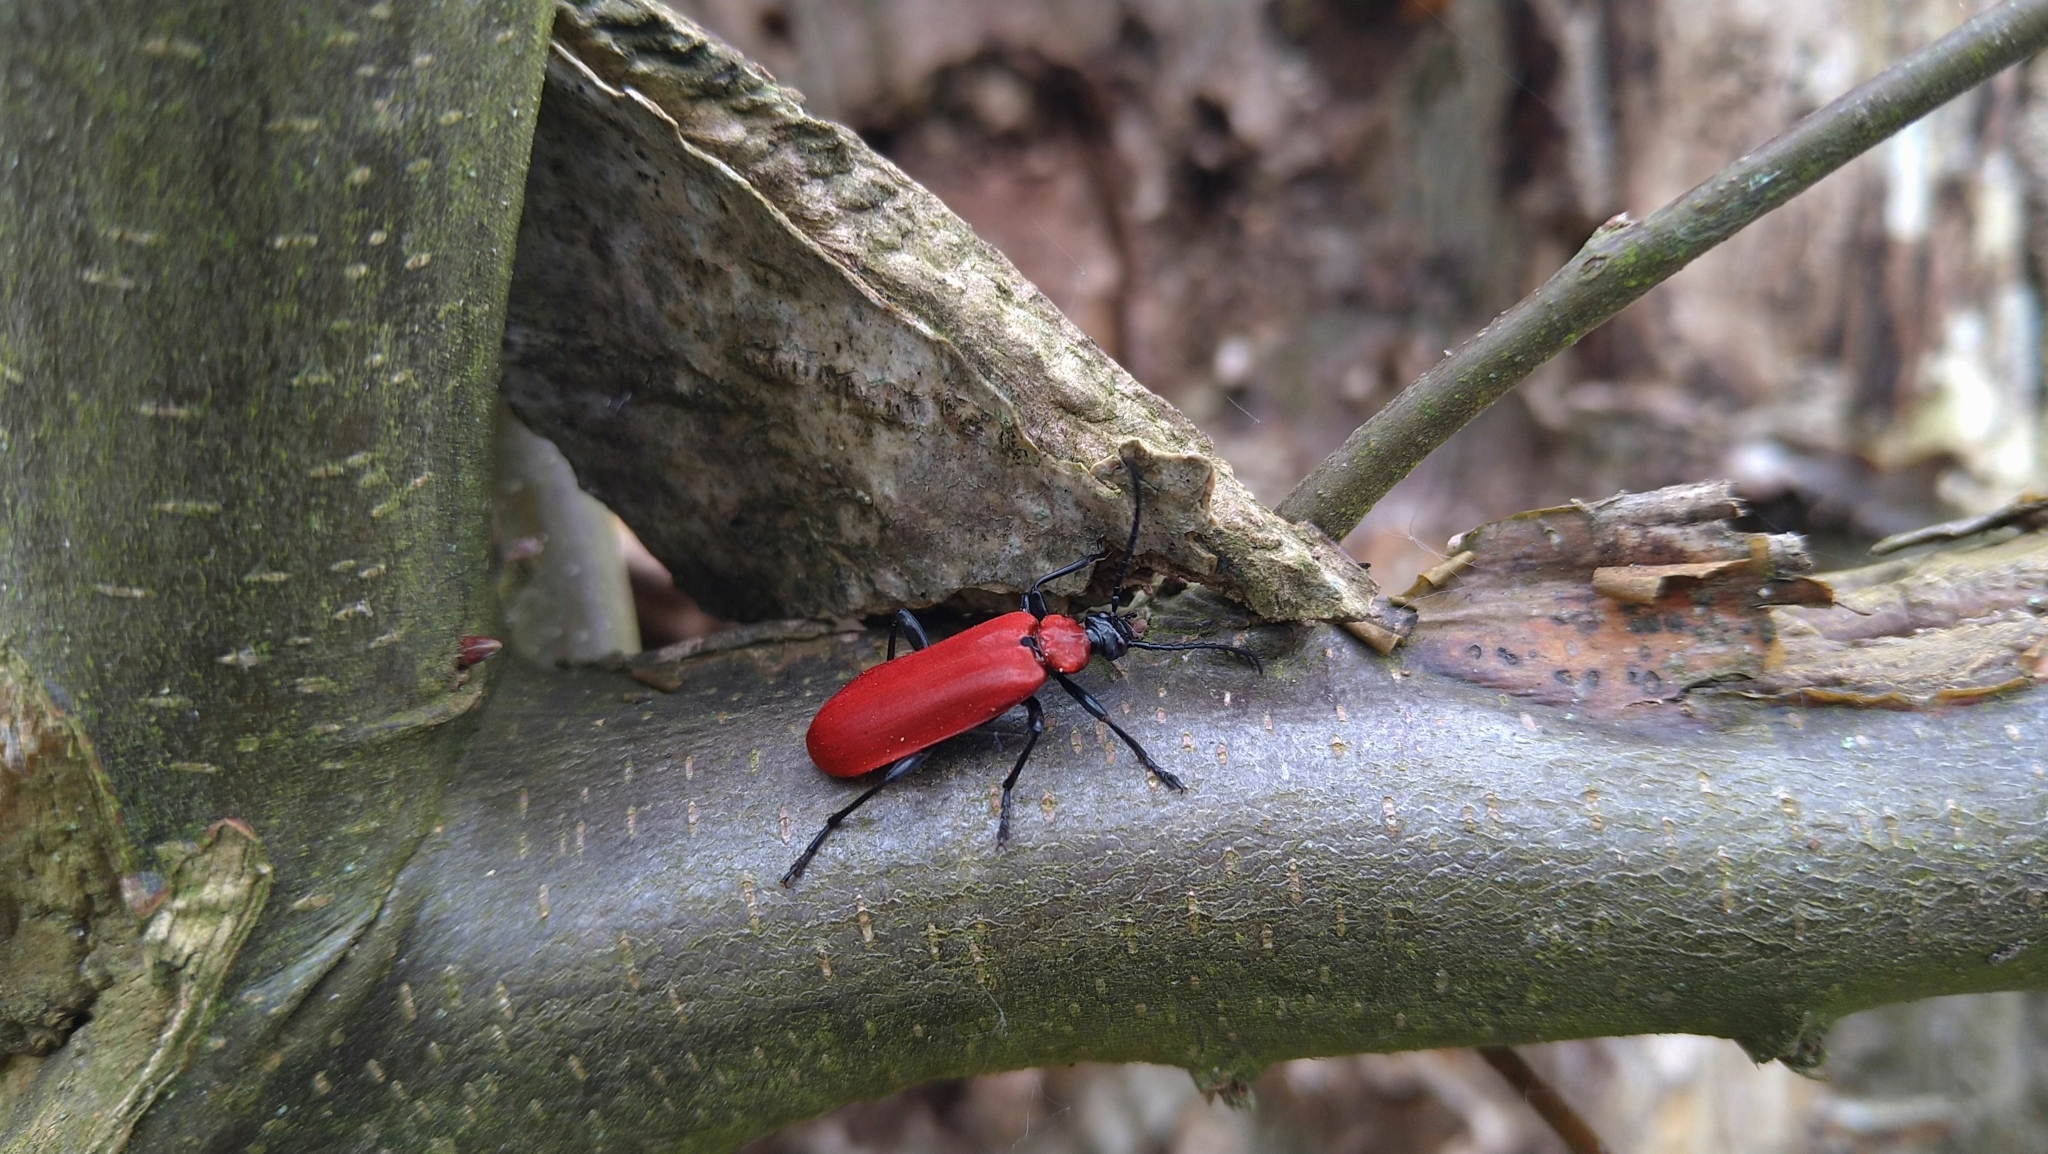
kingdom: Animalia
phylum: Arthropoda
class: Insecta
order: Coleoptera
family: Pyrochroidae
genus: Pyrochroa
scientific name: Pyrochroa coccinea
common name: Black-headed cardinal beetle
